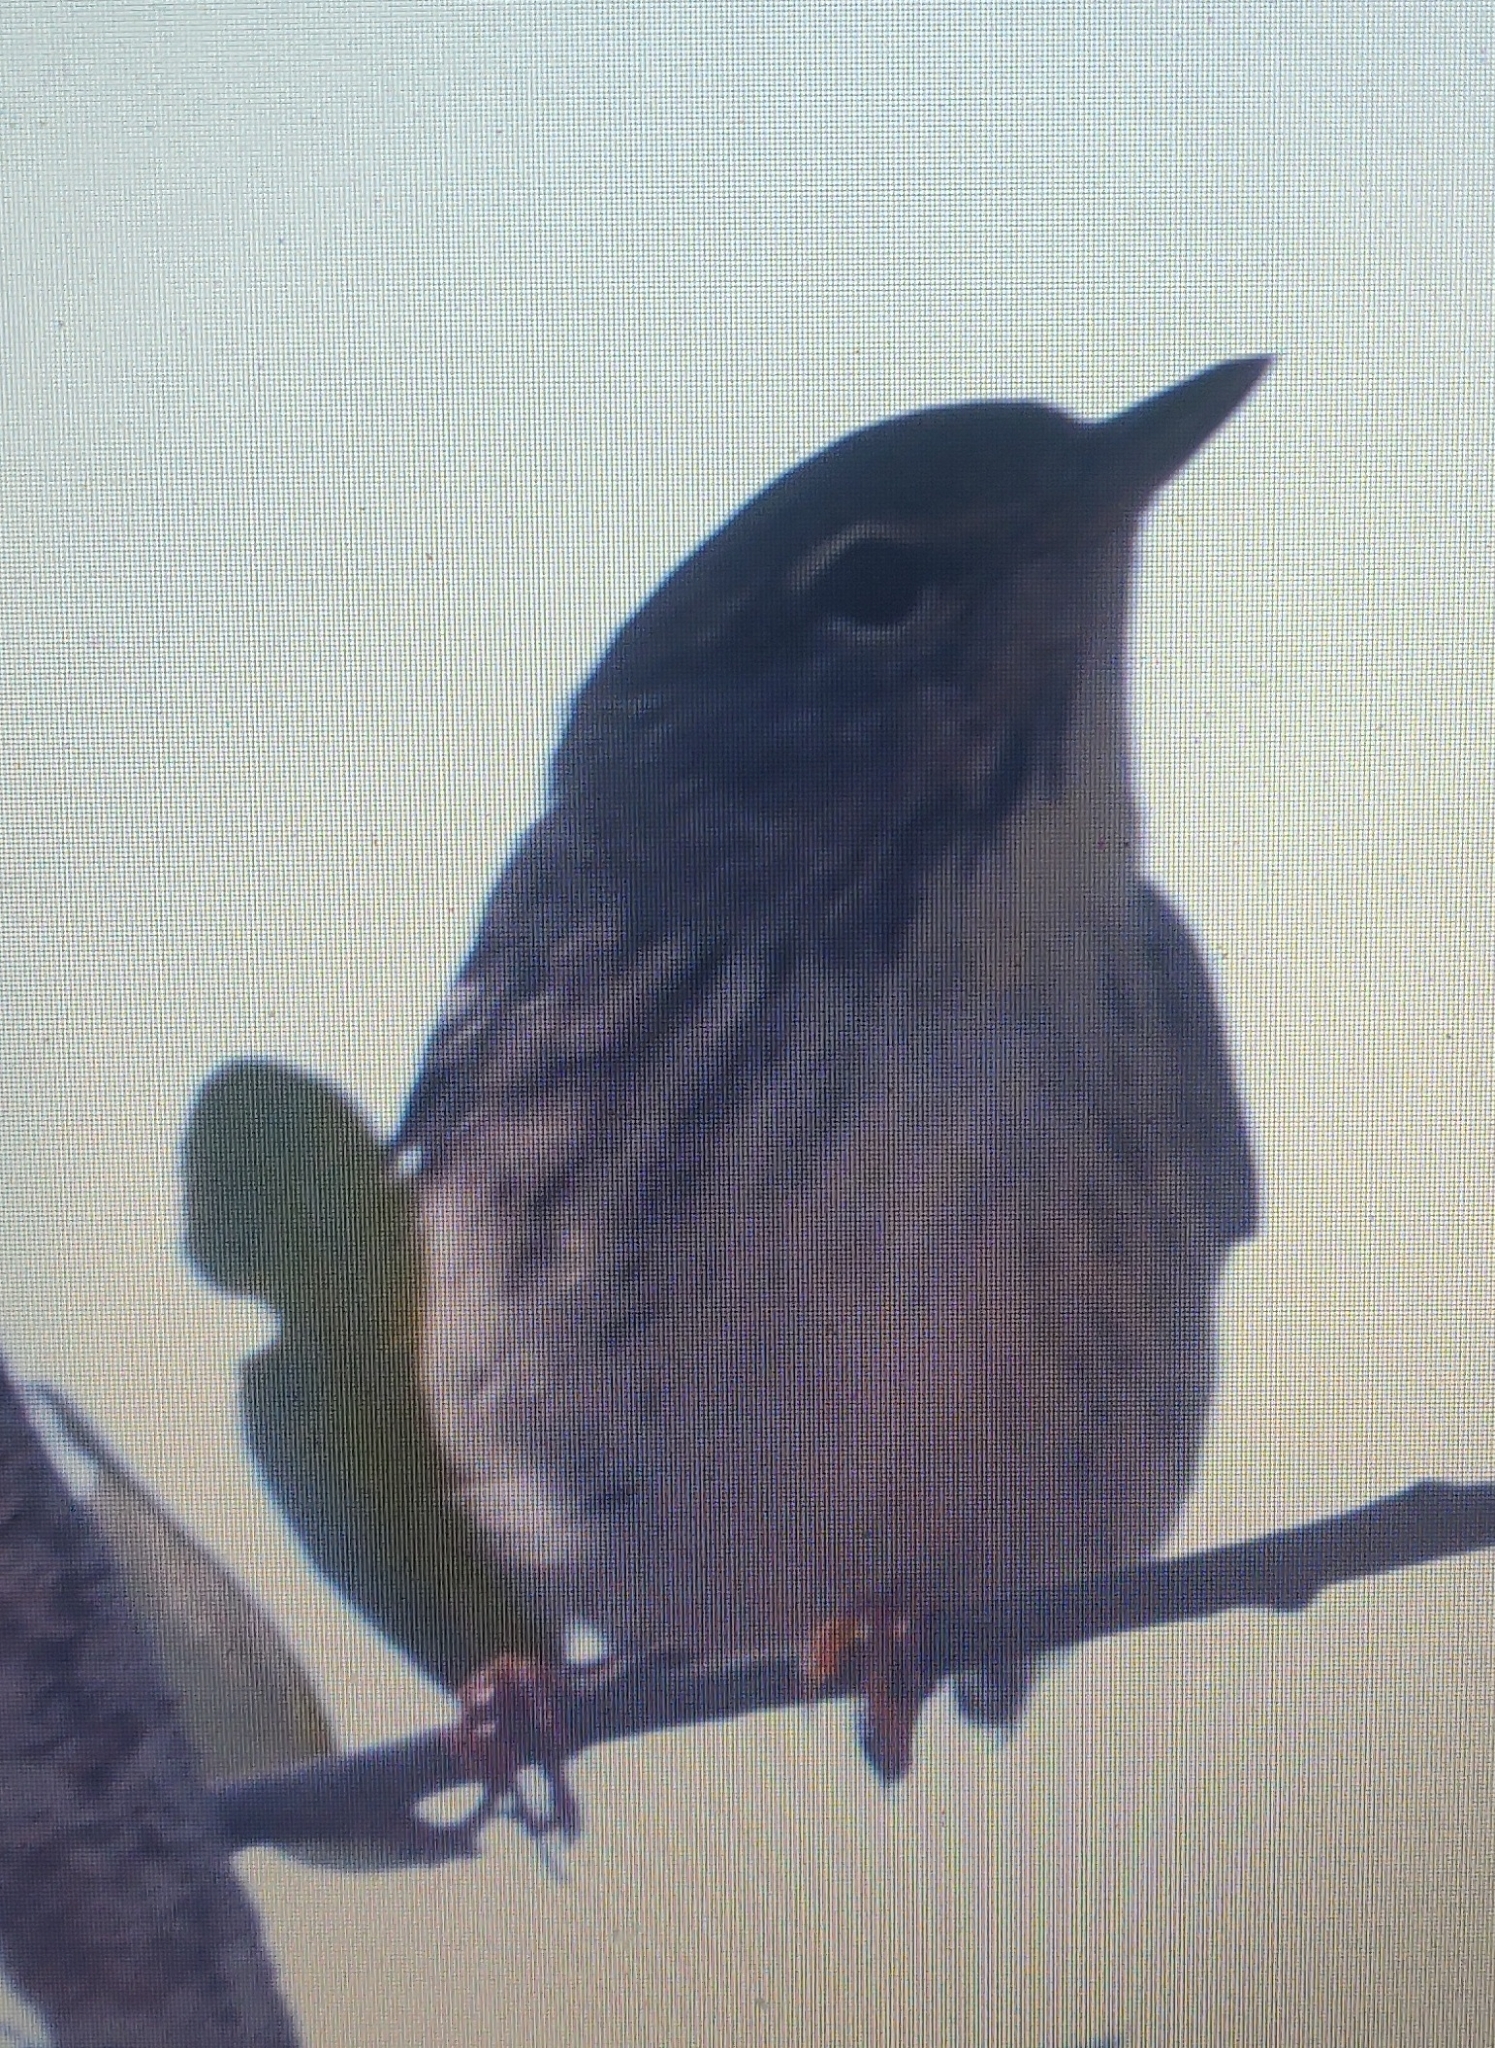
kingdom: Animalia
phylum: Chordata
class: Aves
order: Passeriformes
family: Parulidae
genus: Setophaga
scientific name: Setophaga striata
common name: Blackpoll warbler
